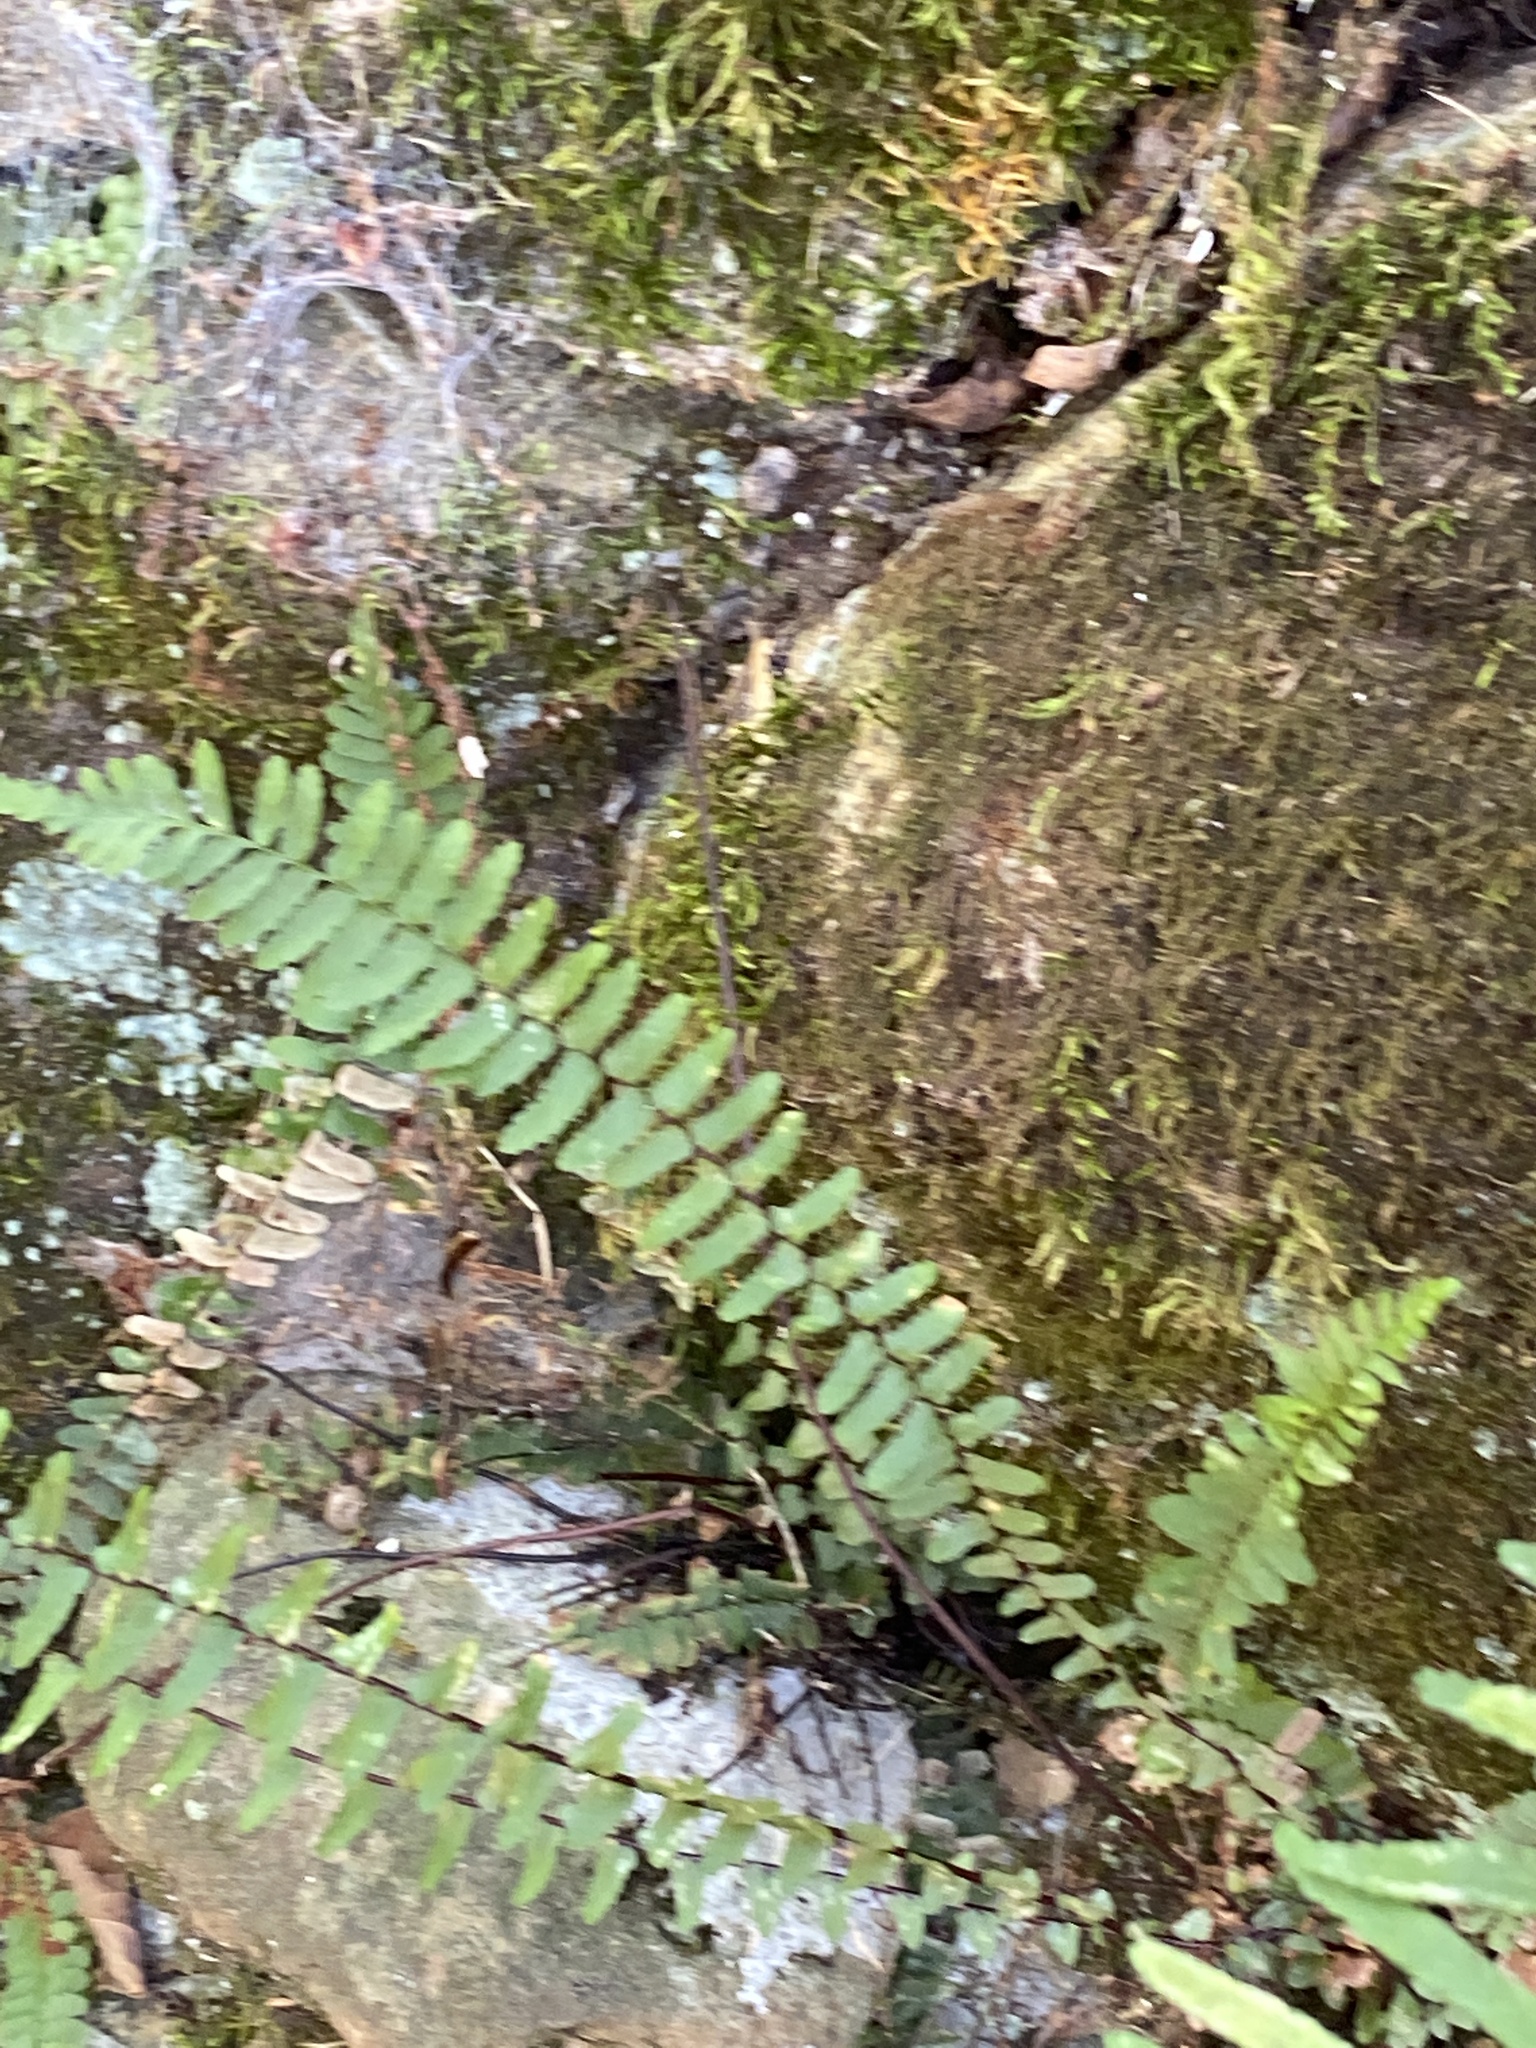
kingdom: Plantae
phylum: Tracheophyta
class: Polypodiopsida
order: Polypodiales
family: Aspleniaceae
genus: Asplenium
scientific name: Asplenium platyneuron
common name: Ebony spleenwort
